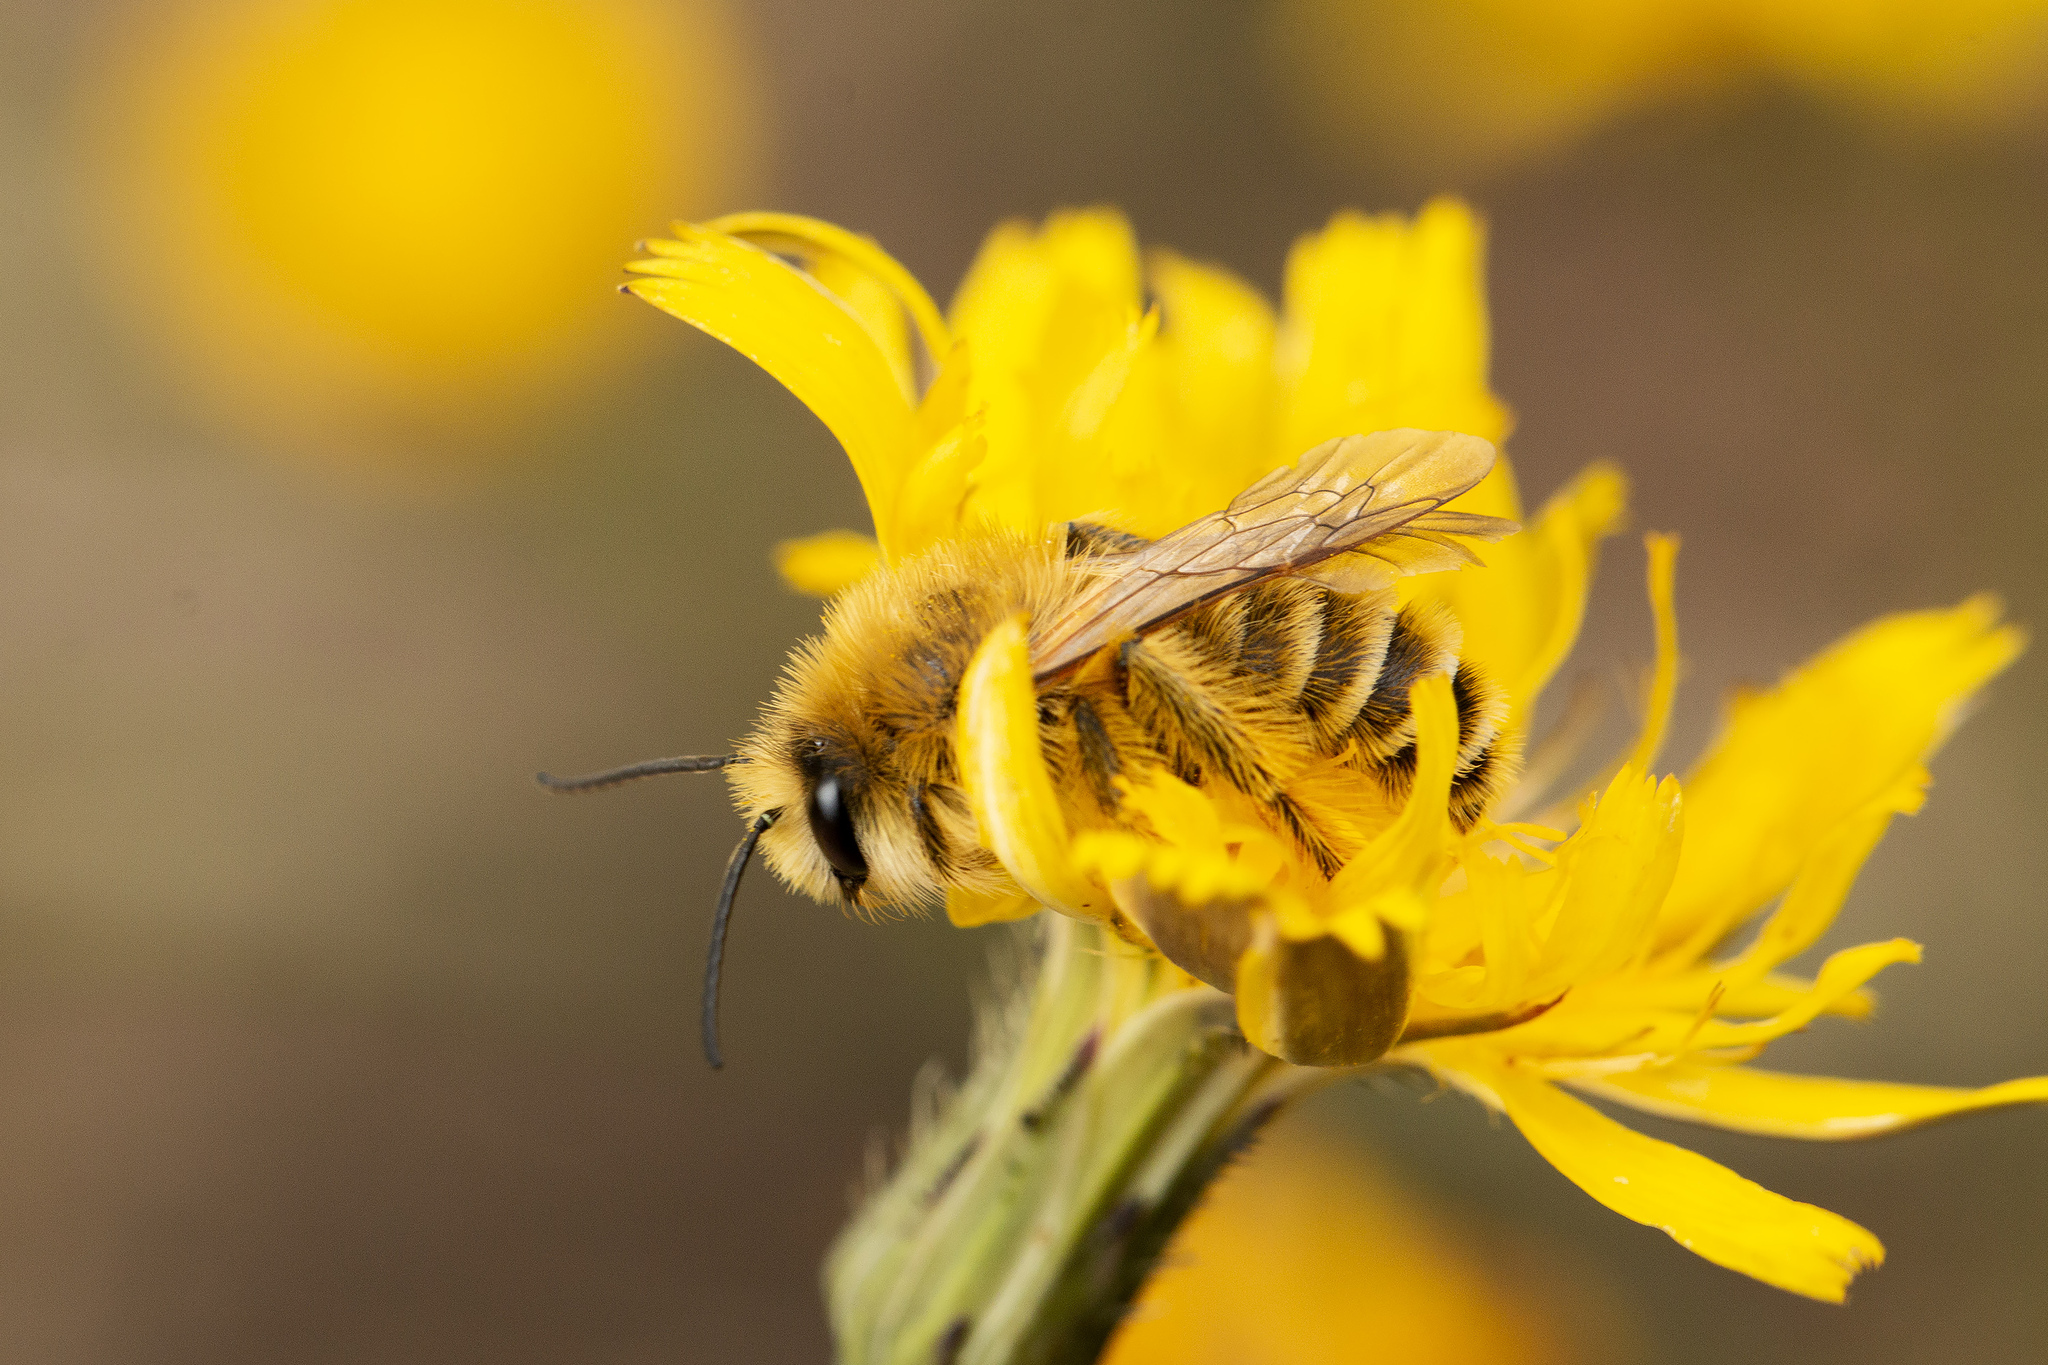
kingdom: Animalia
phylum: Arthropoda
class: Insecta
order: Hymenoptera
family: Melittidae
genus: Dasypoda
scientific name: Dasypoda hirtipes
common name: Pantaloon bee
